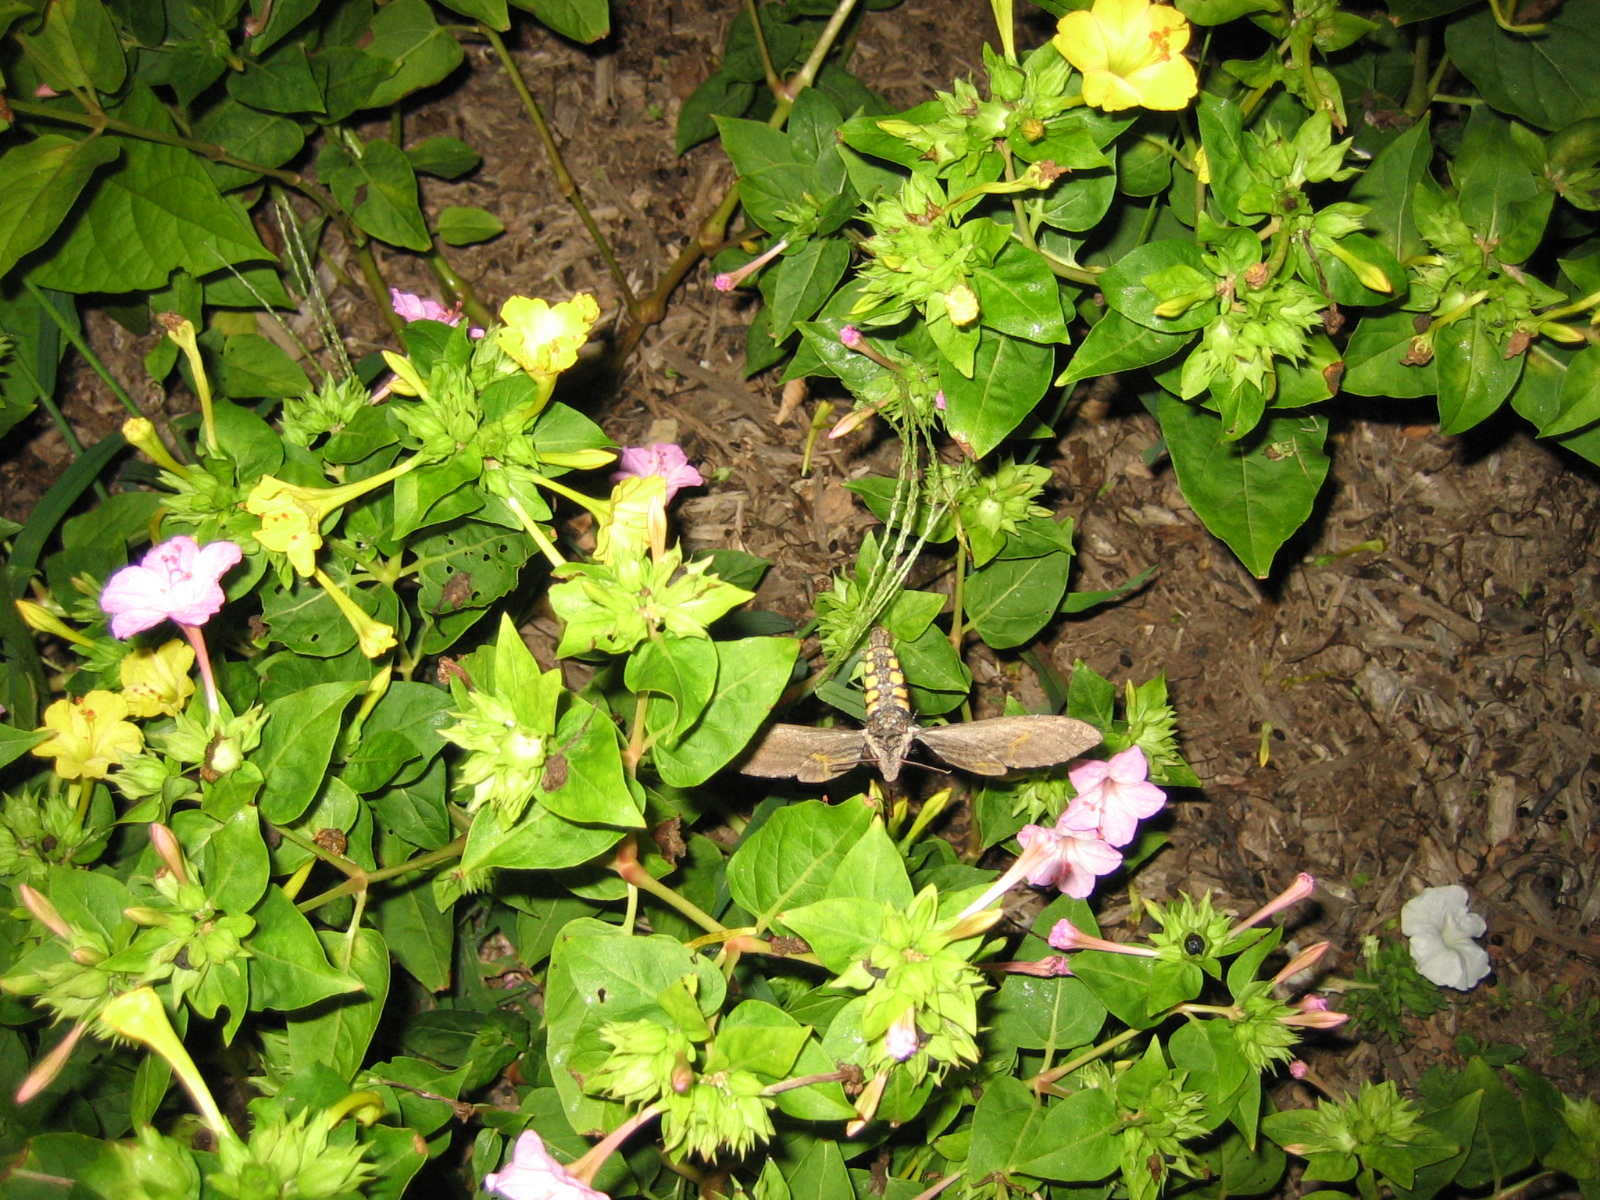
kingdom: Animalia
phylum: Arthropoda
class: Insecta
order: Lepidoptera
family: Sphingidae
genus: Manduca
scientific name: Manduca sexta
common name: Carolina sphinx
